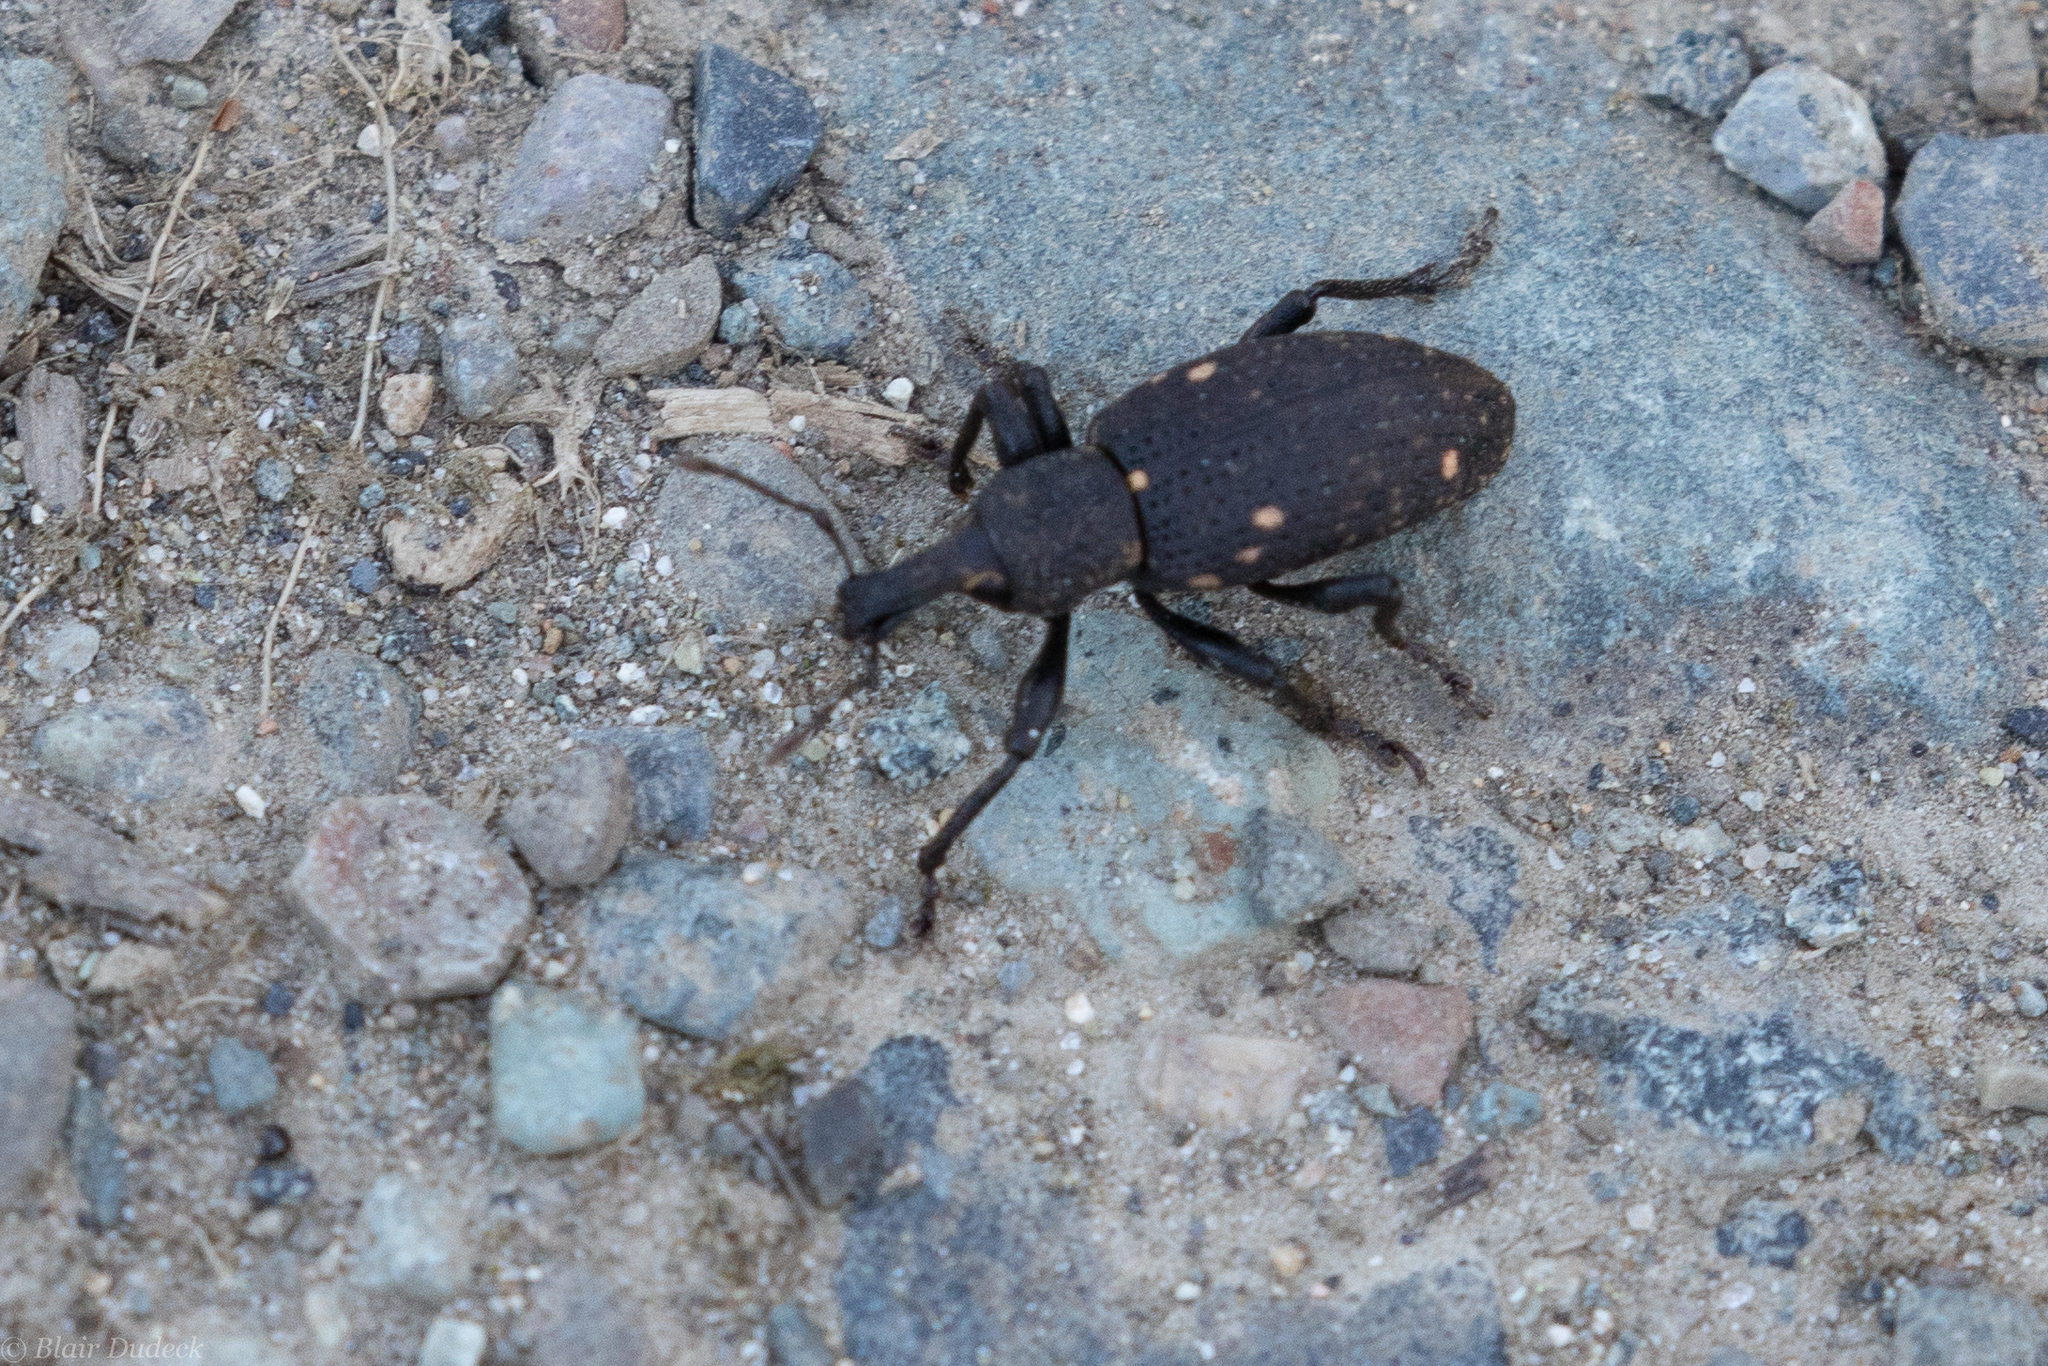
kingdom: Animalia
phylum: Arthropoda
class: Insecta
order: Coleoptera
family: Curculionidae
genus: Plinthodes
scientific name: Plinthodes taeniatus
